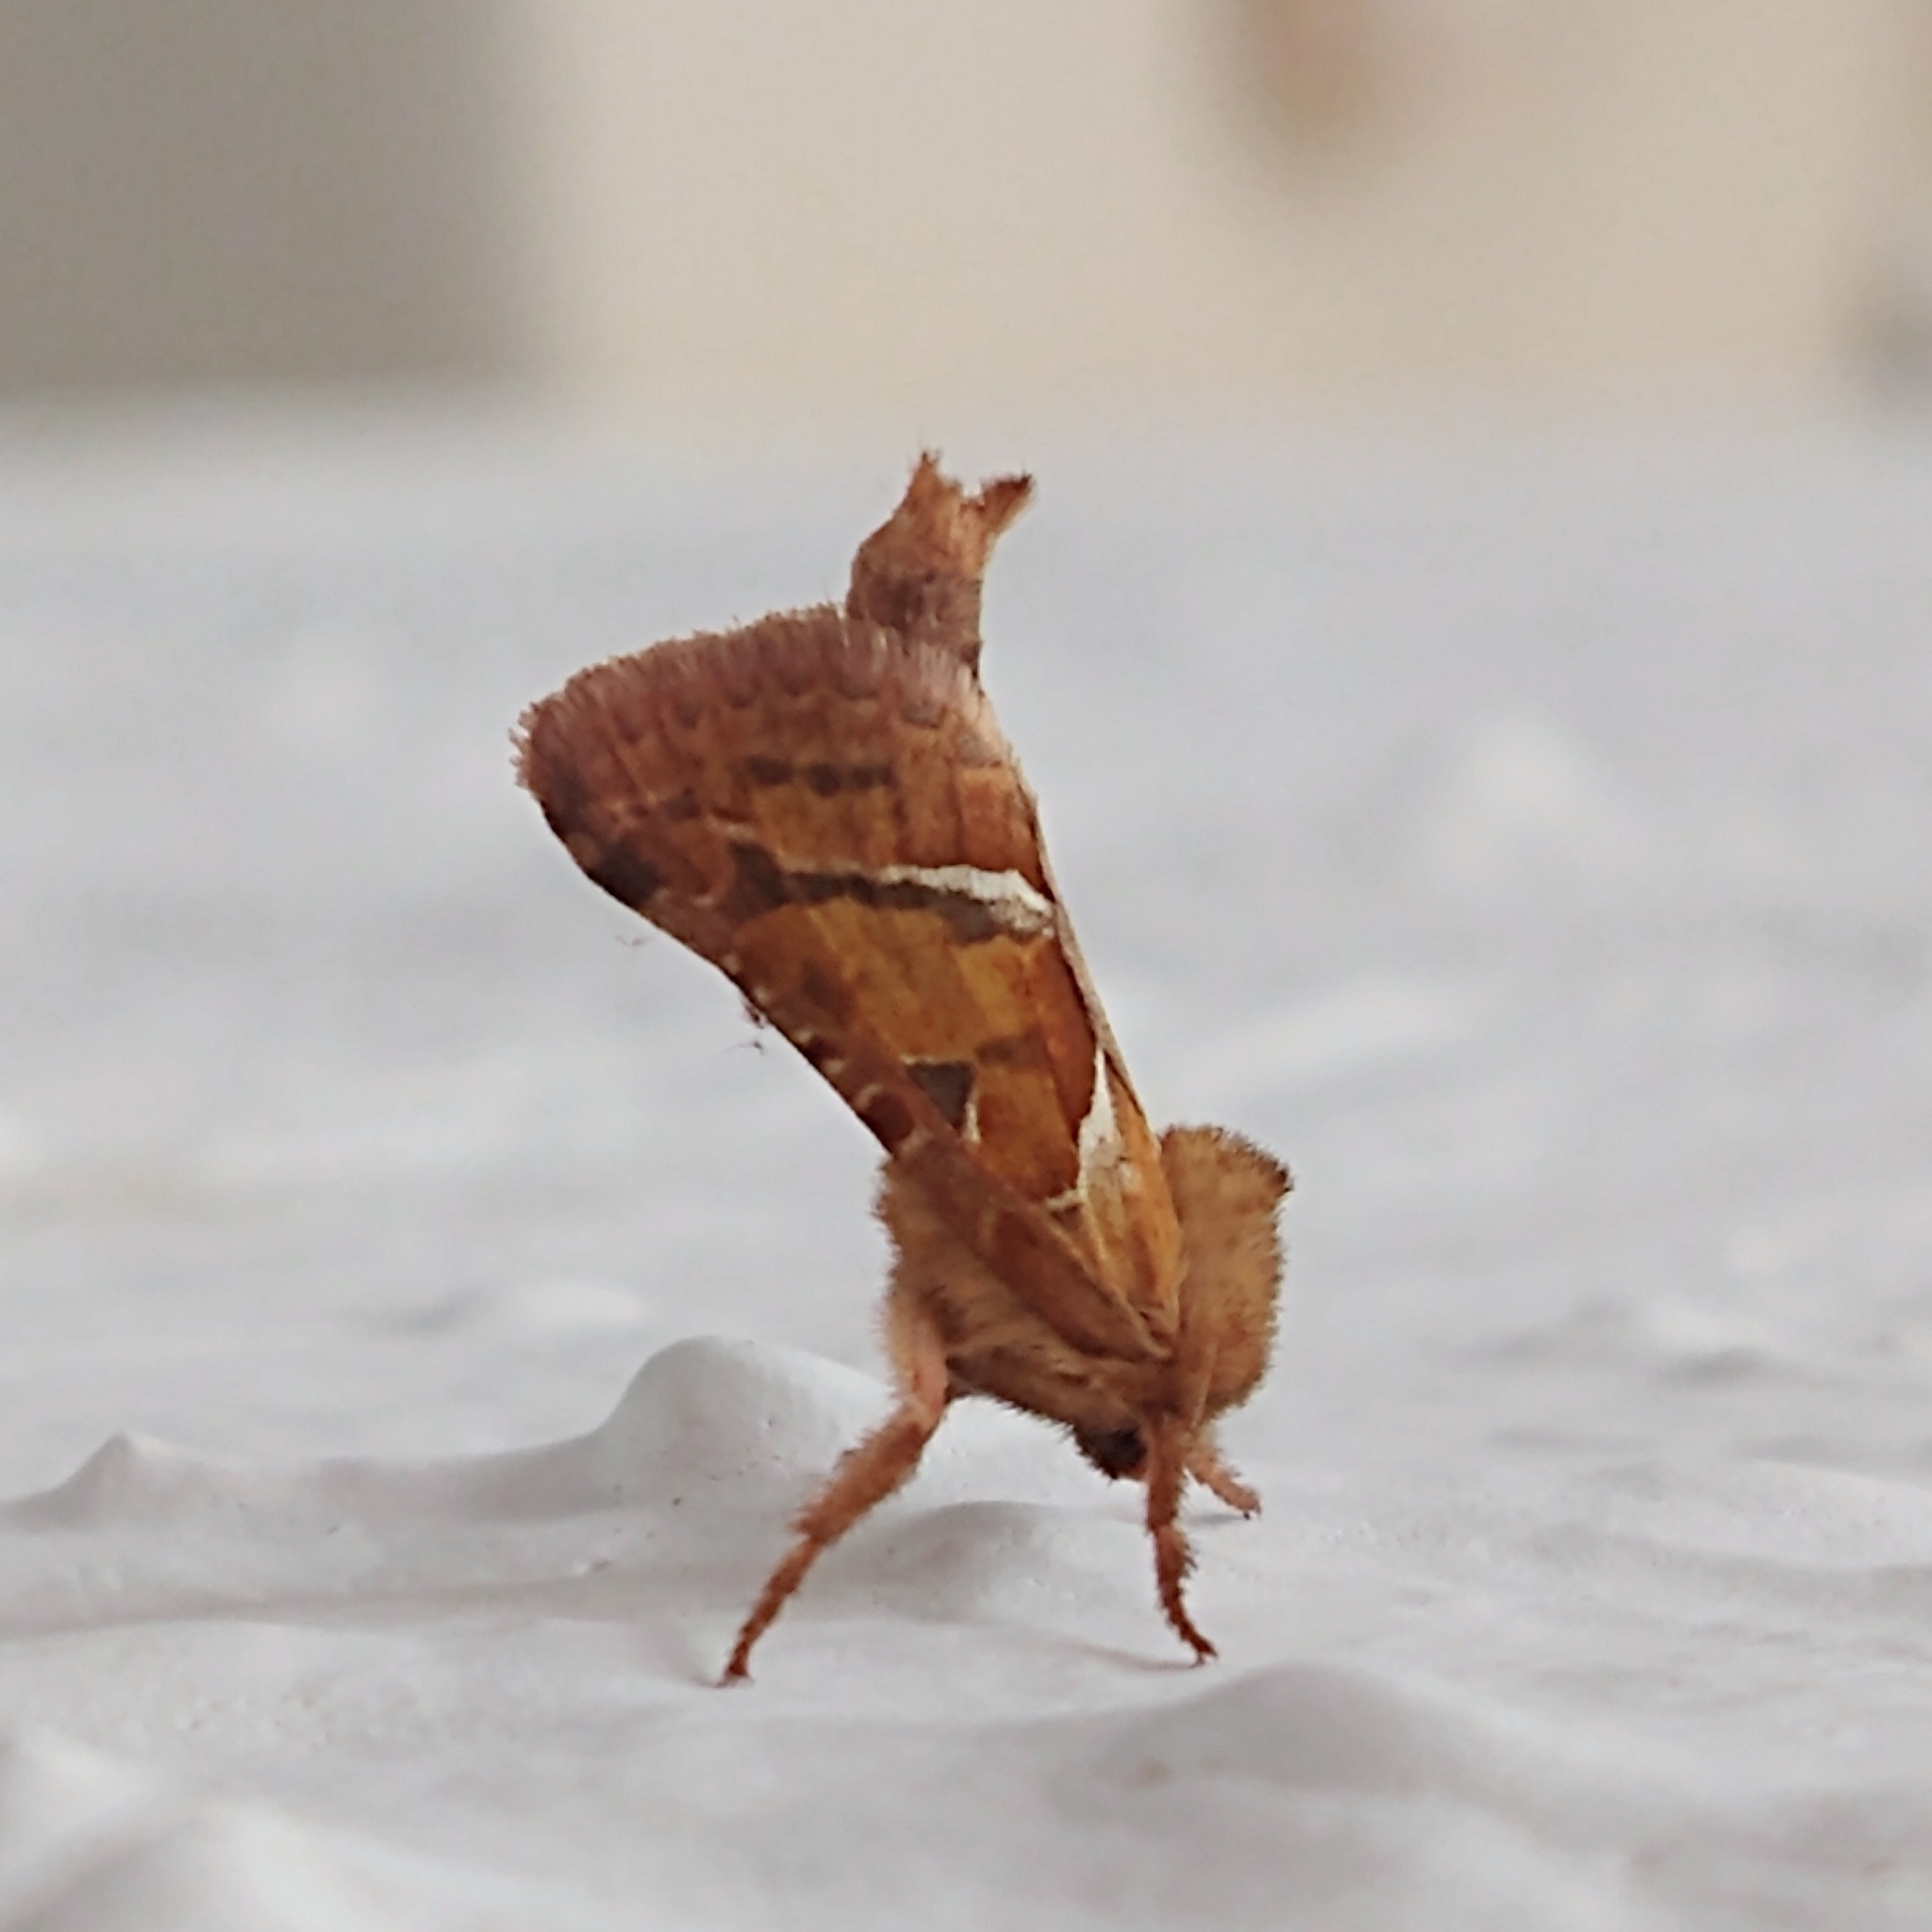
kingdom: Animalia
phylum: Arthropoda
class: Insecta
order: Lepidoptera
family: Hepialidae
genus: Triodia
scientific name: Triodia sylvina
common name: Orange swift
